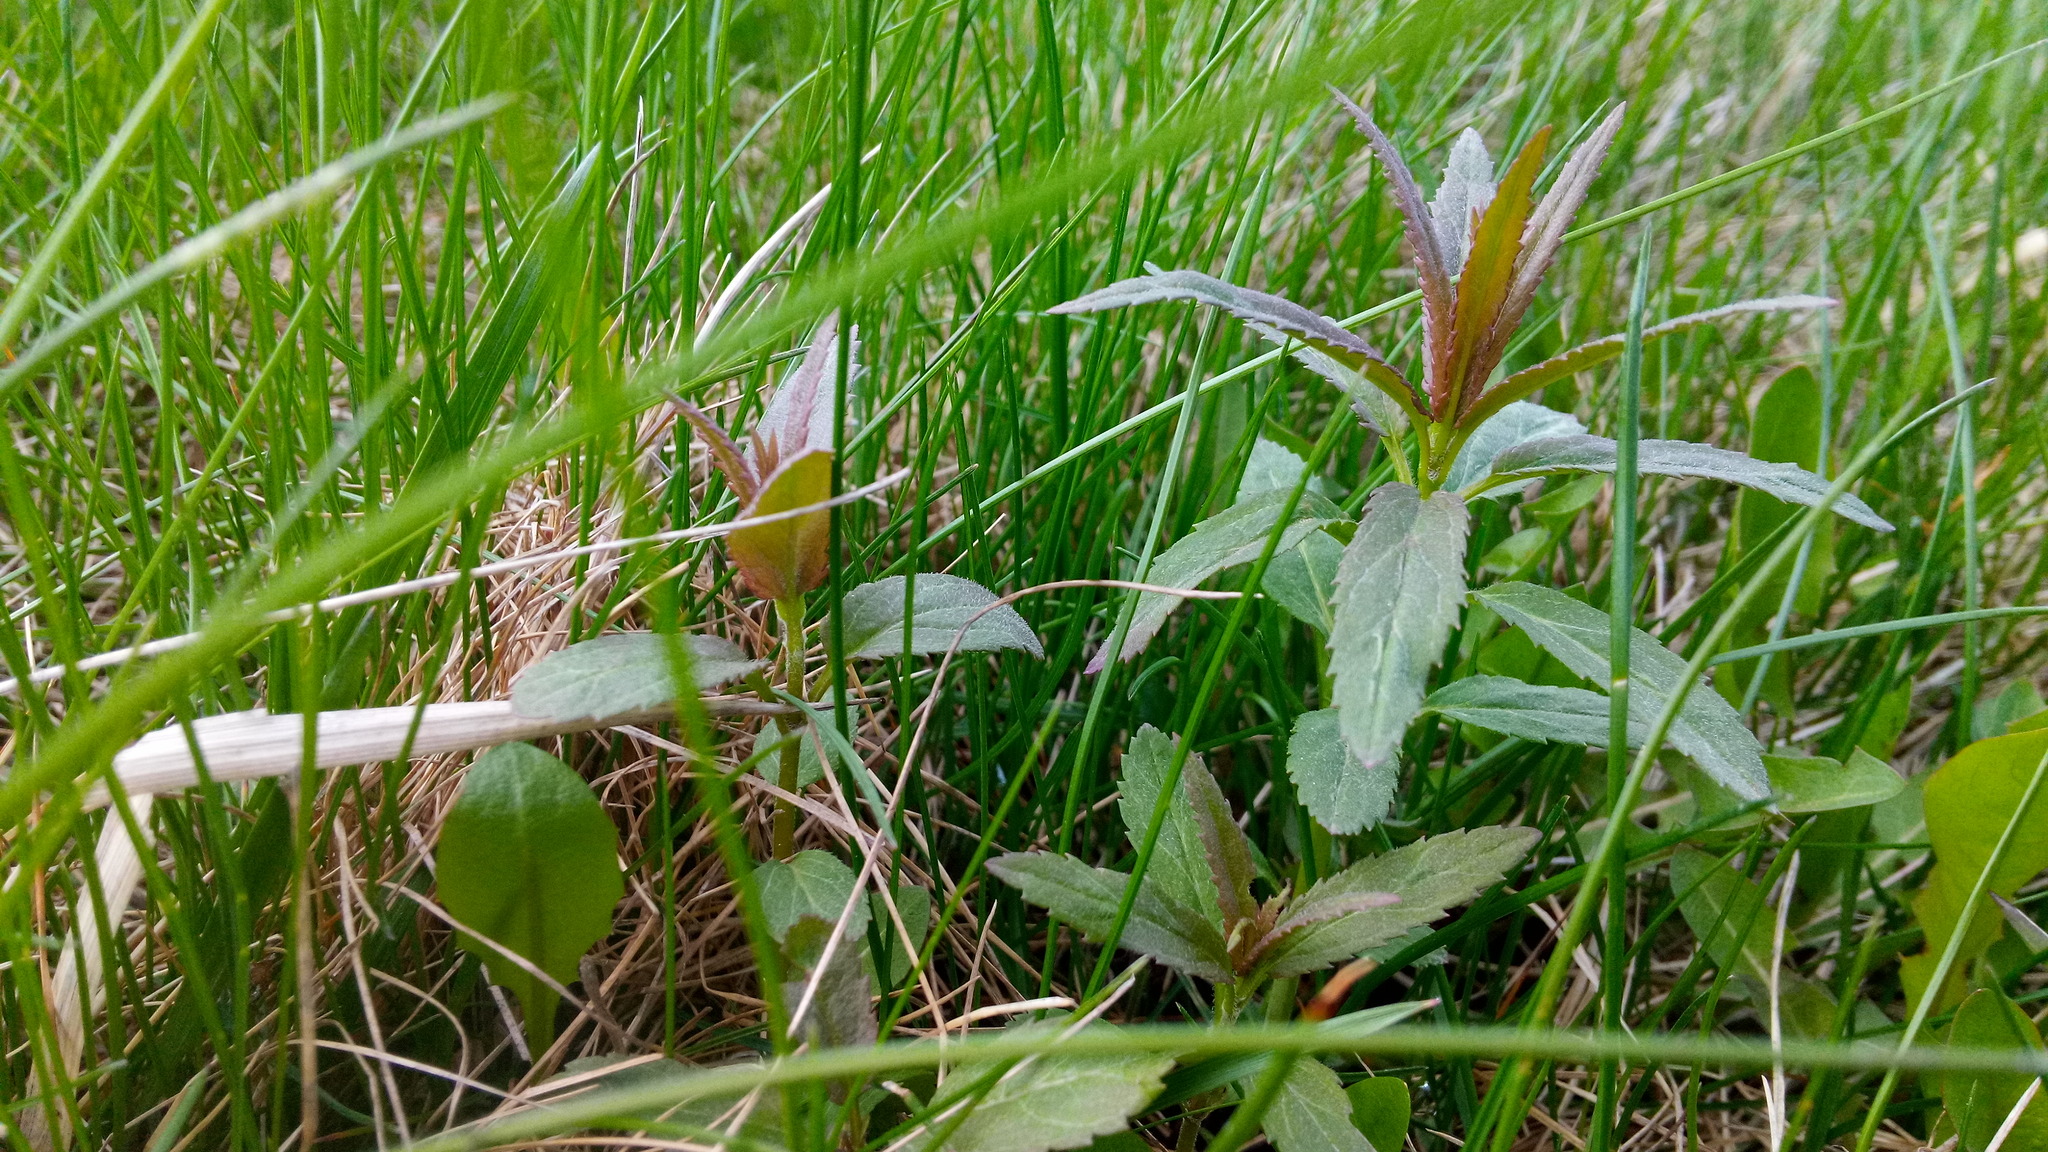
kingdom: Plantae
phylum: Tracheophyta
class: Magnoliopsida
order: Lamiales
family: Plantaginaceae
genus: Veronica
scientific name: Veronica longifolia
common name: Garden speedwell
